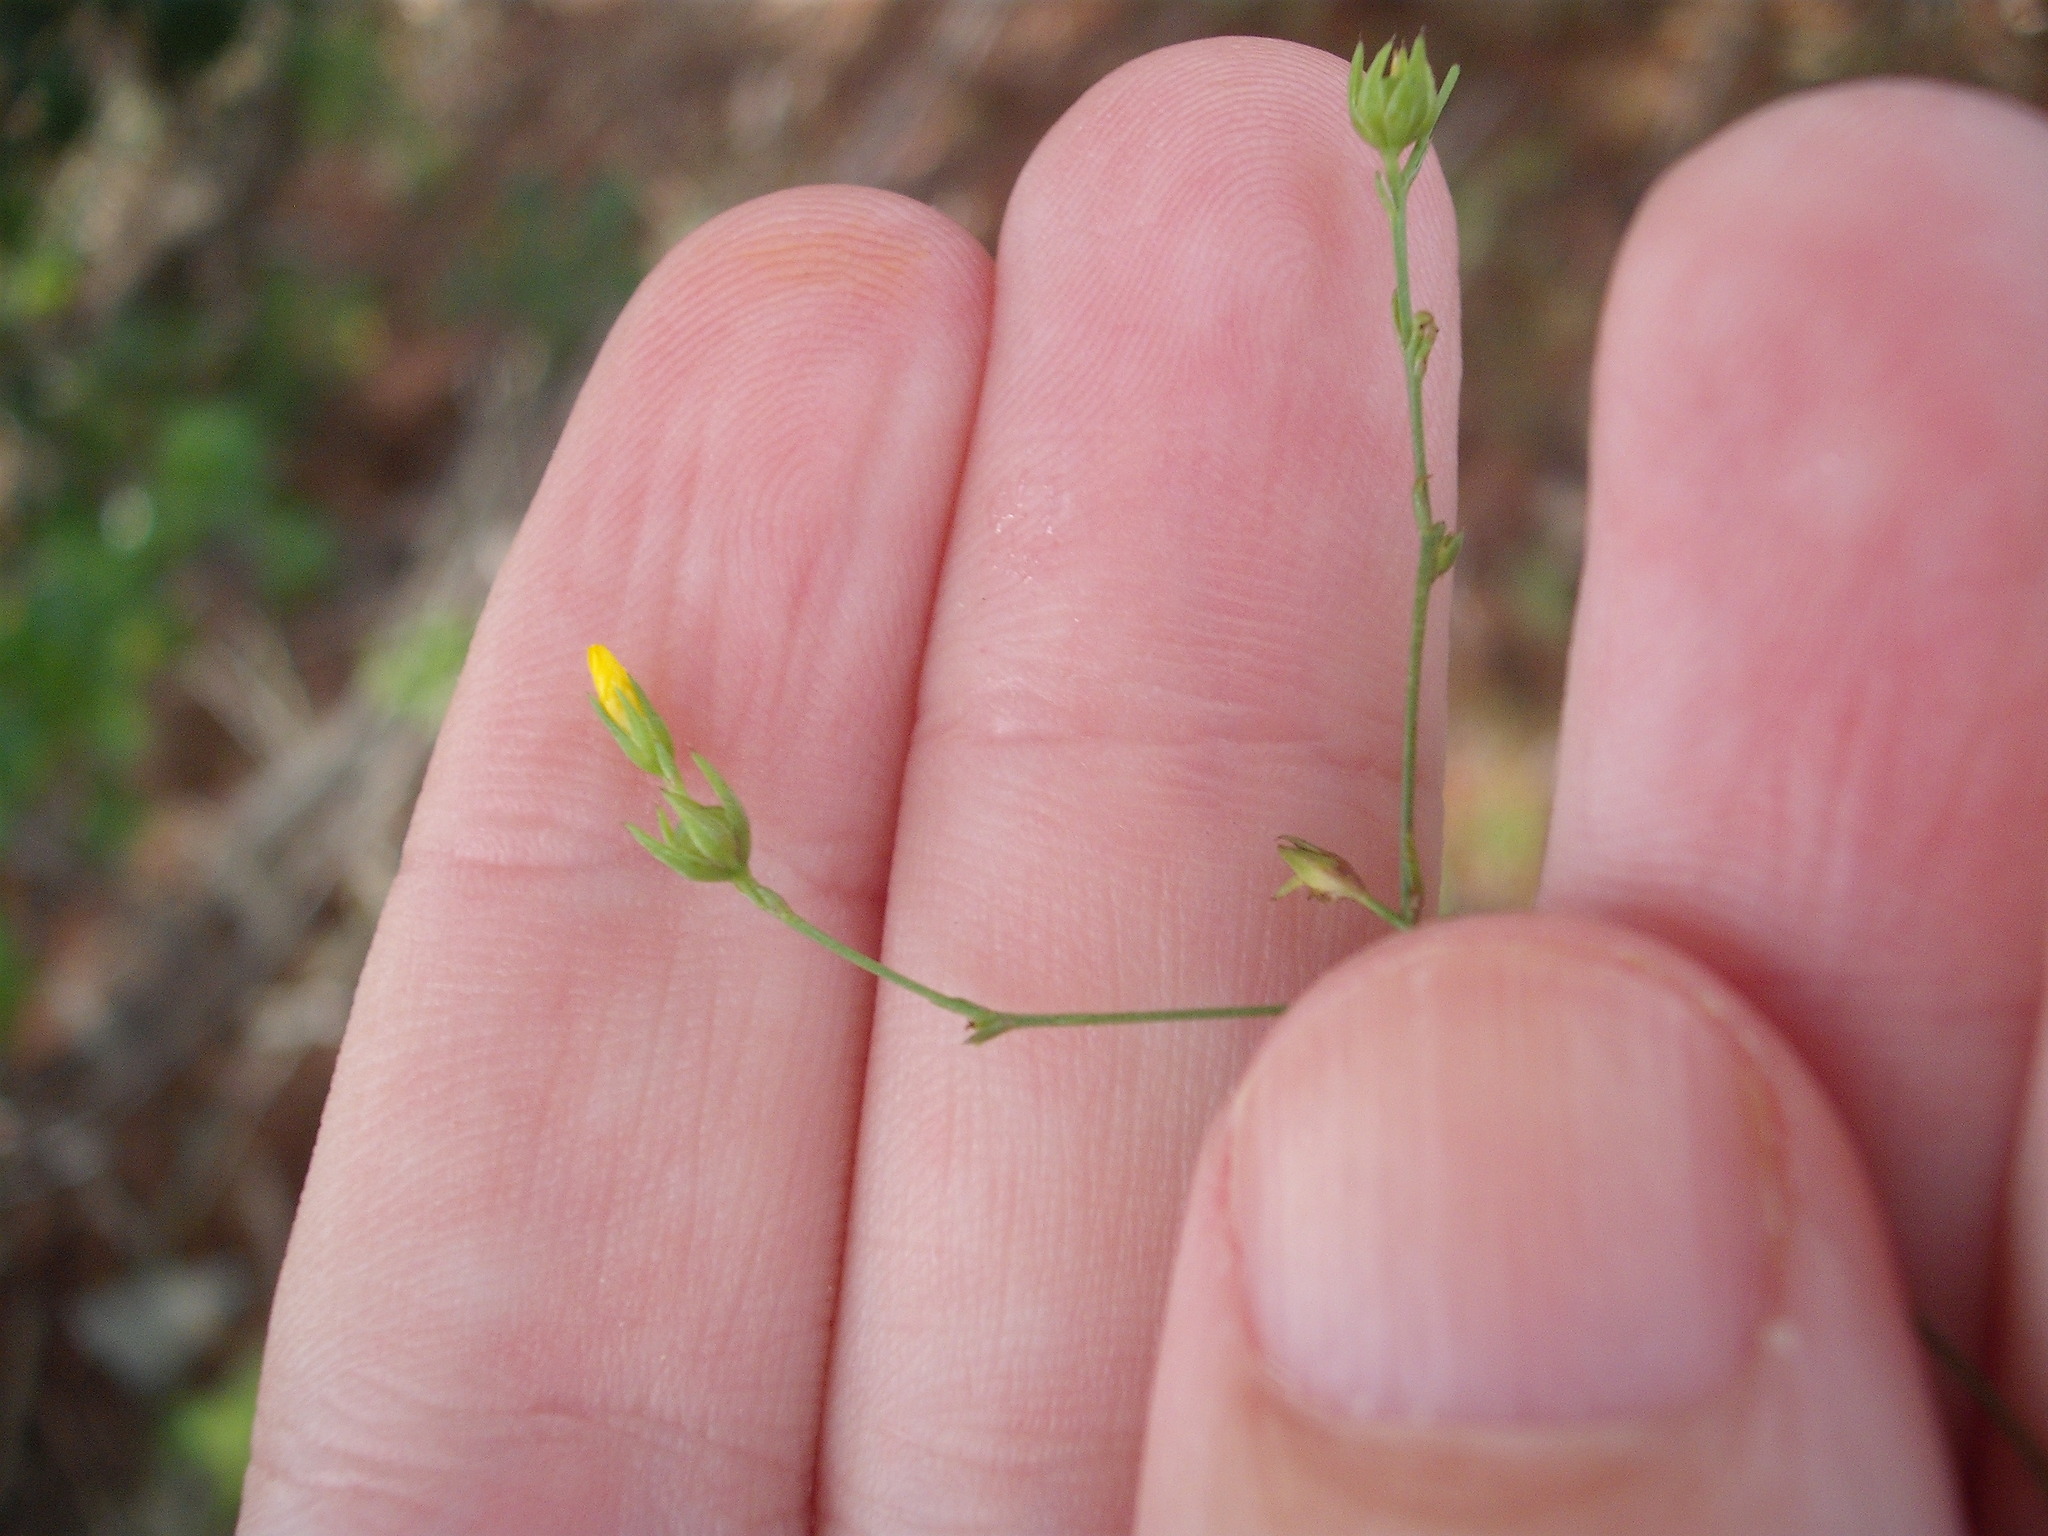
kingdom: Plantae
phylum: Tracheophyta
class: Magnoliopsida
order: Malpighiales
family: Linaceae
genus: Linum
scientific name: Linum trigynum
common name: French flax
